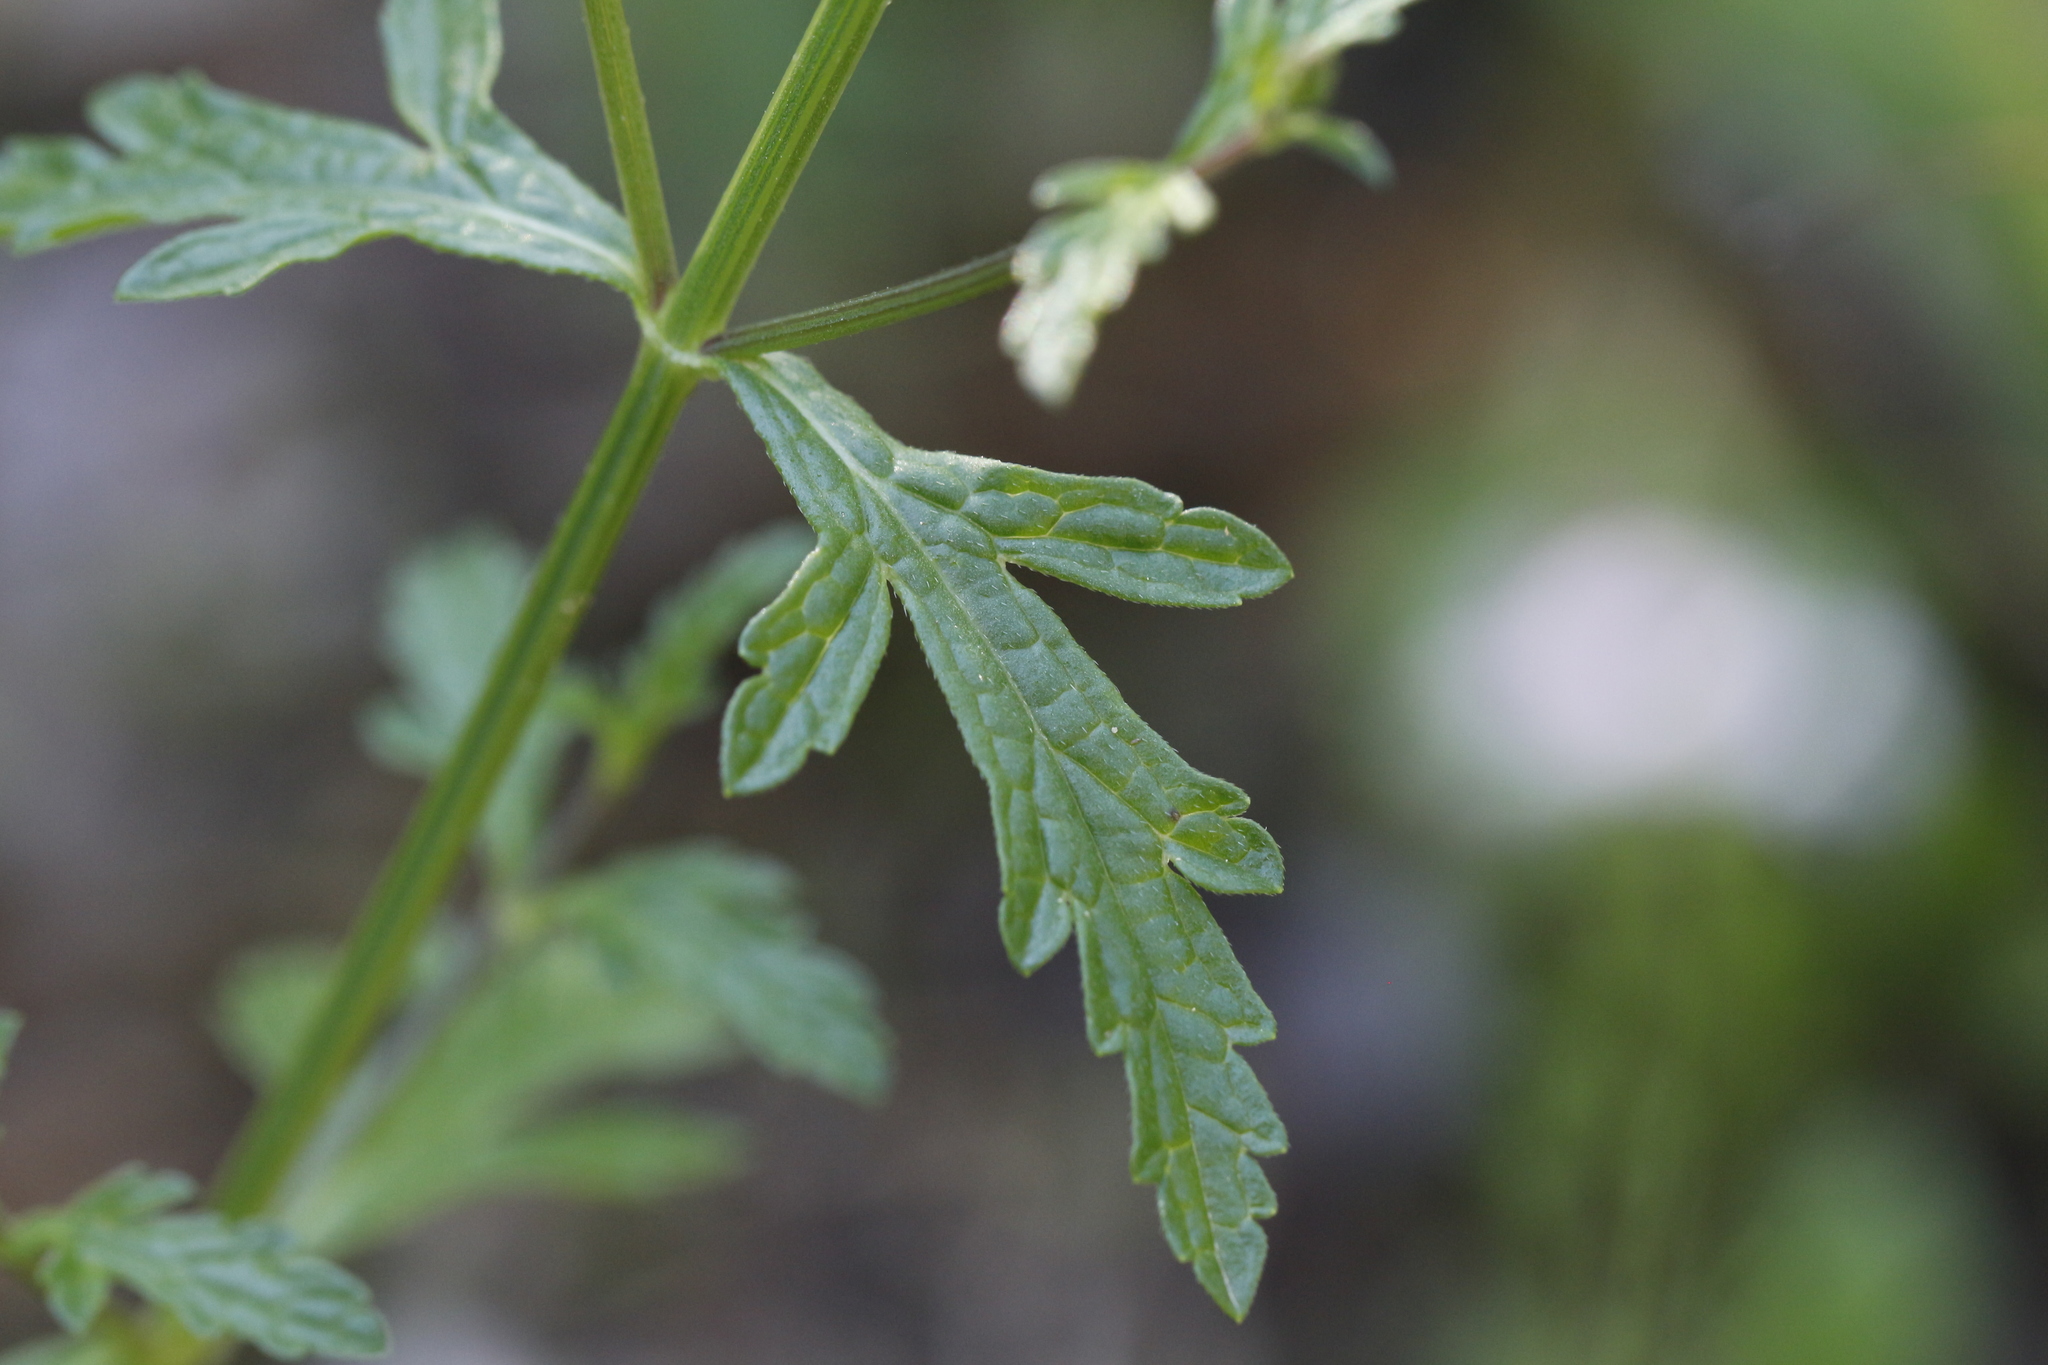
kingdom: Plantae
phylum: Tracheophyta
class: Magnoliopsida
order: Lamiales
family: Verbenaceae
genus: Verbena
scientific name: Verbena officinalis
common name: Vervain
